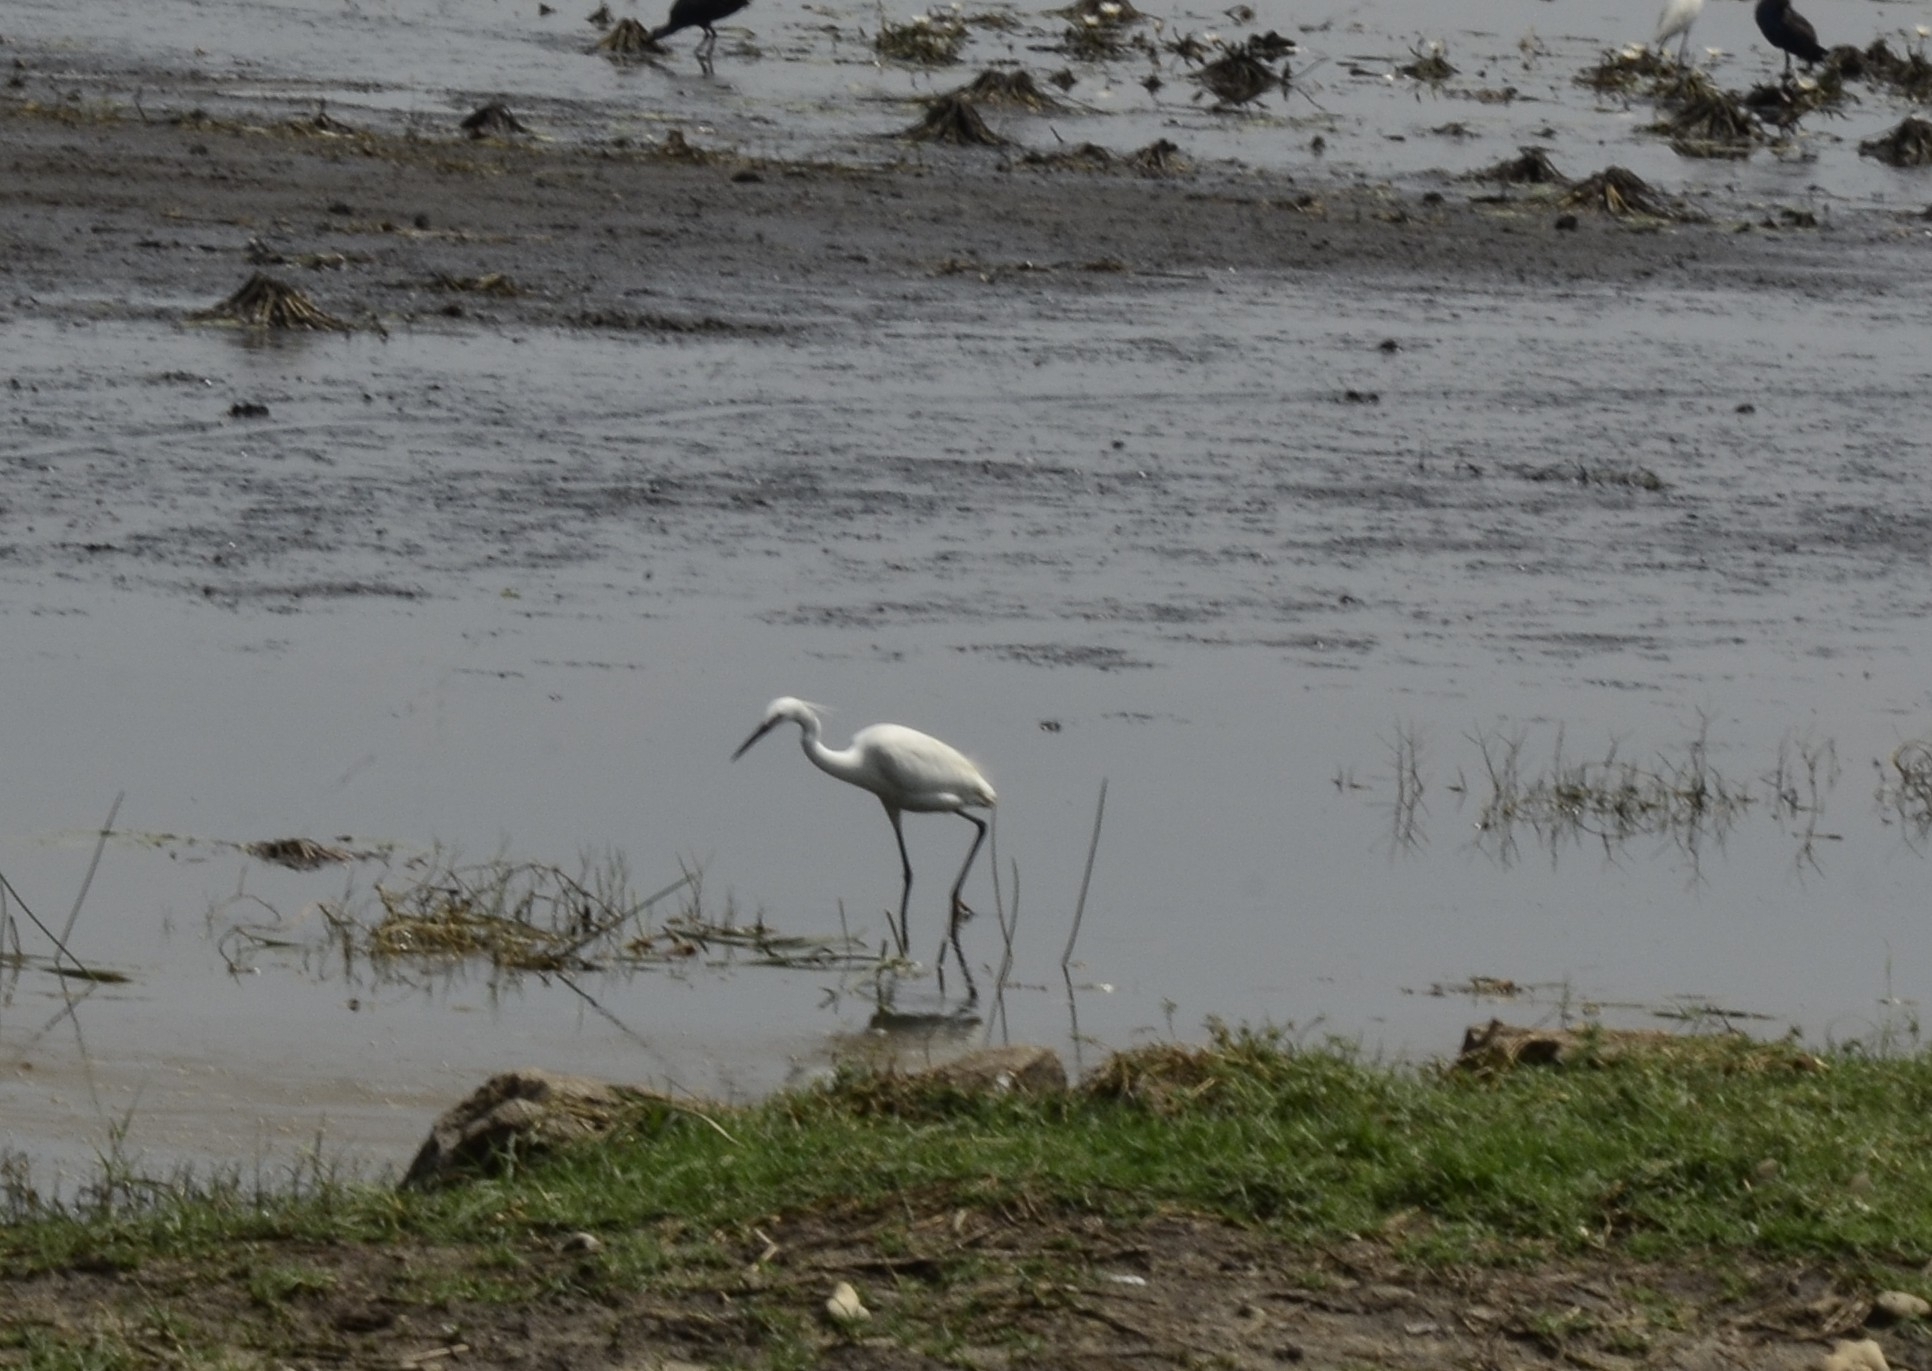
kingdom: Animalia
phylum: Chordata
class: Aves
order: Pelecaniformes
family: Ardeidae
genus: Egretta
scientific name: Egretta garzetta
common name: Little egret
